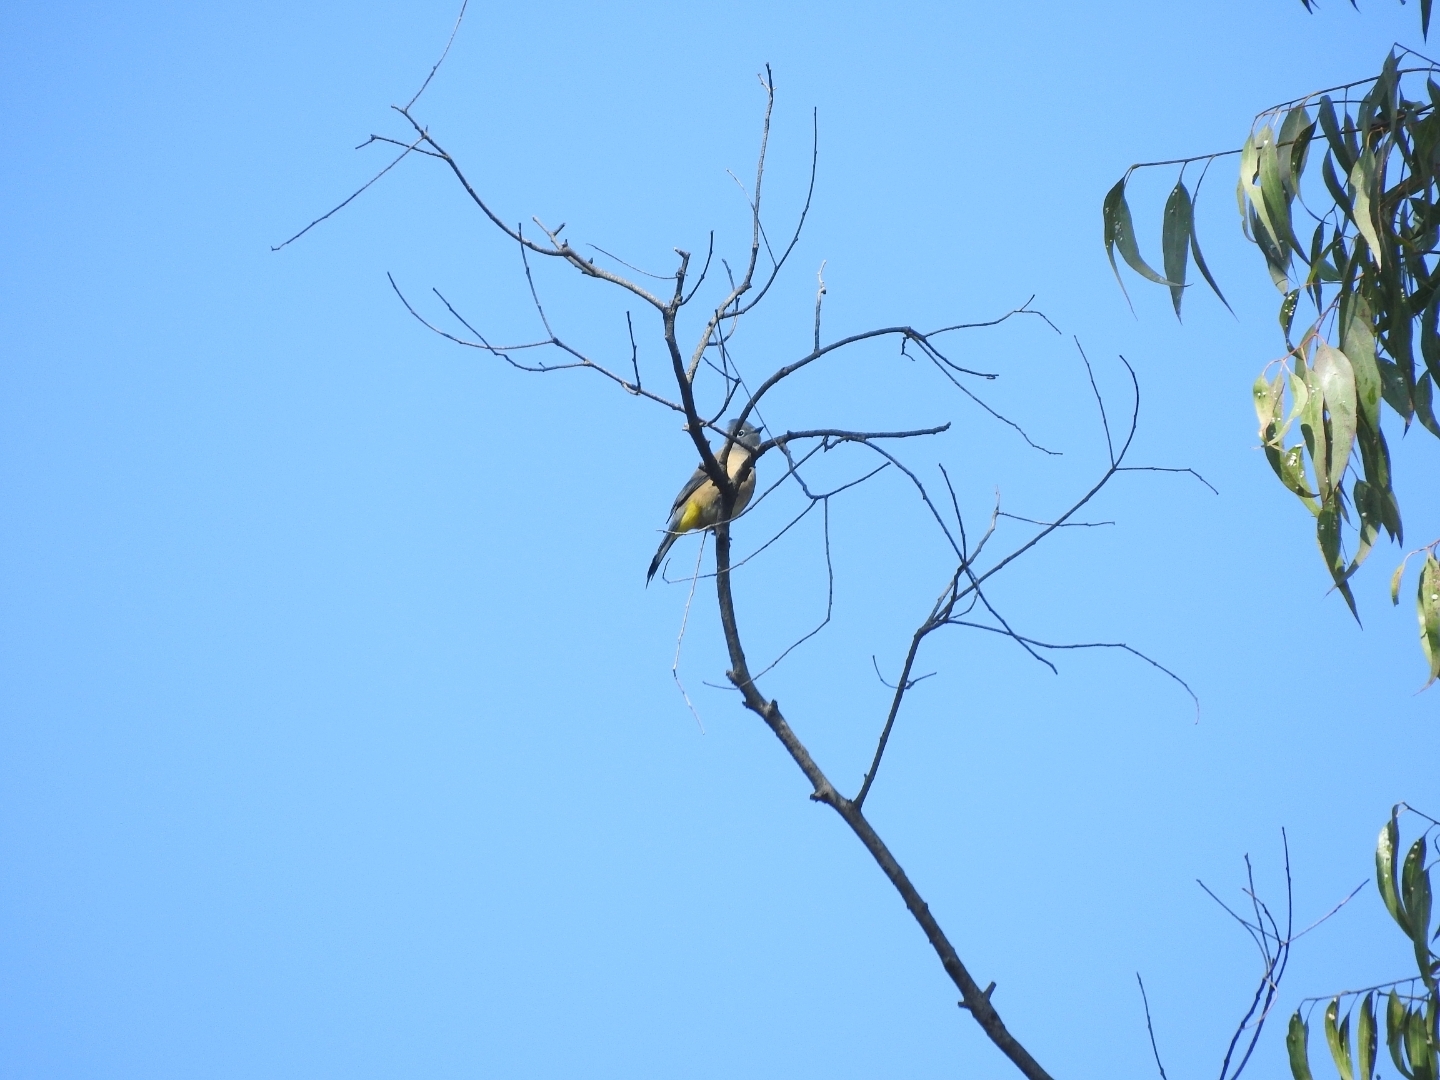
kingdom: Animalia
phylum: Chordata
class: Aves
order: Passeriformes
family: Ptilogonatidae
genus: Ptilogonys
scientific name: Ptilogonys cinereus
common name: Gray silky-flycatcher
